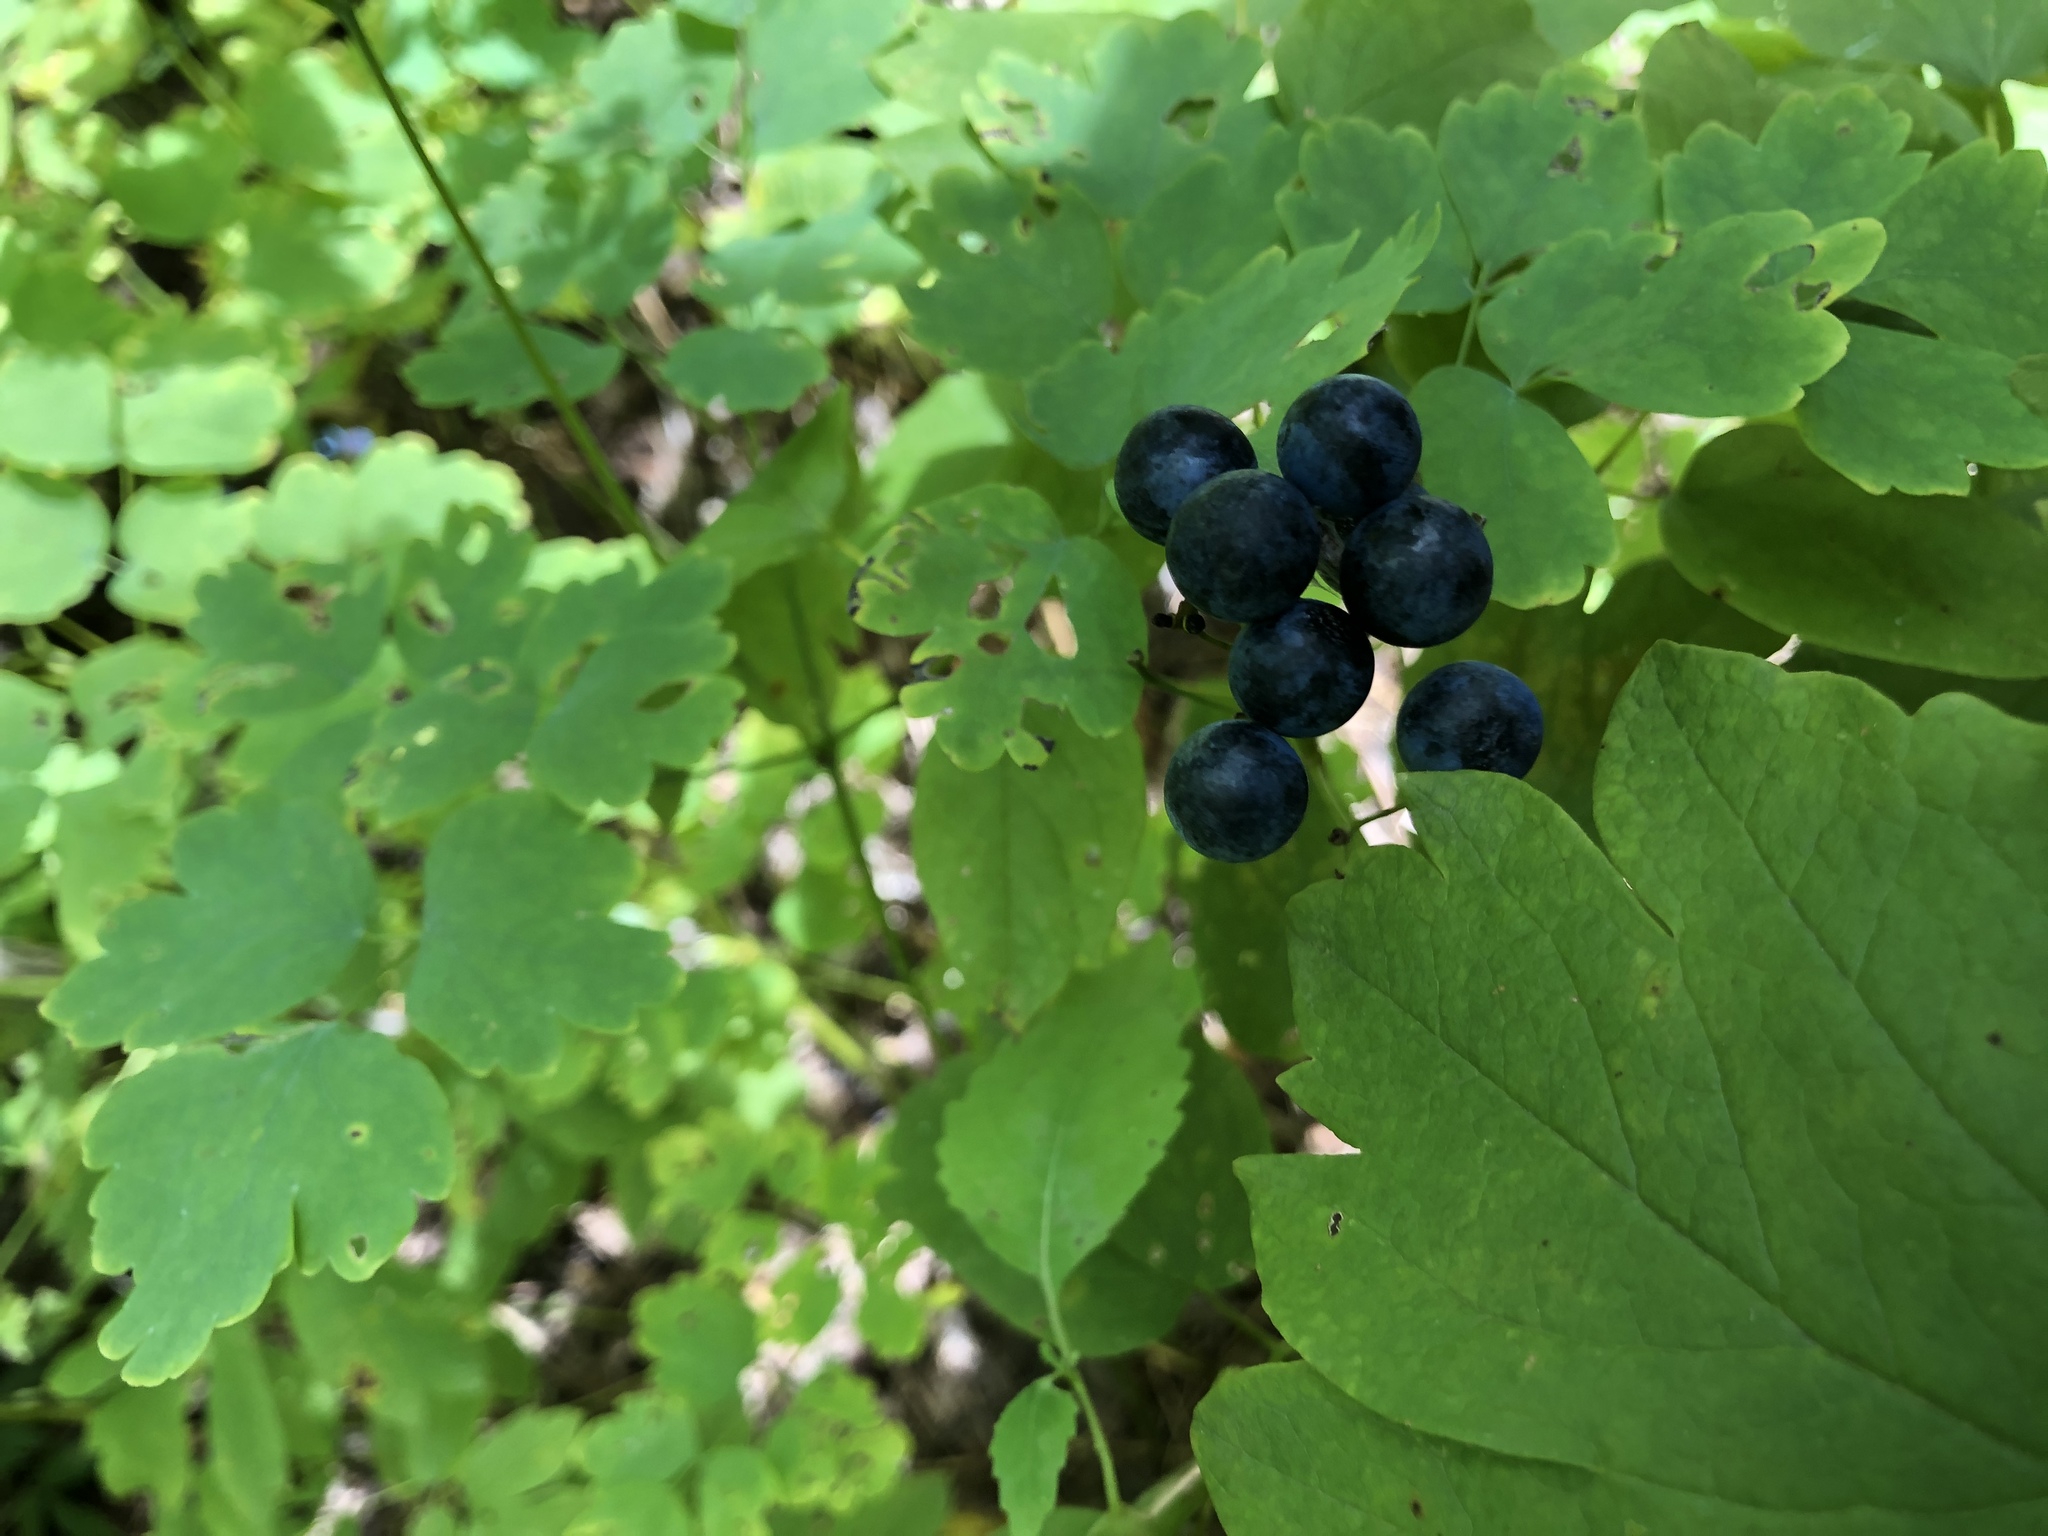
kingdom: Plantae
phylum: Tracheophyta
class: Magnoliopsida
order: Ranunculales
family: Berberidaceae
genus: Caulophyllum
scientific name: Caulophyllum thalictroides
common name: Blue cohosh
